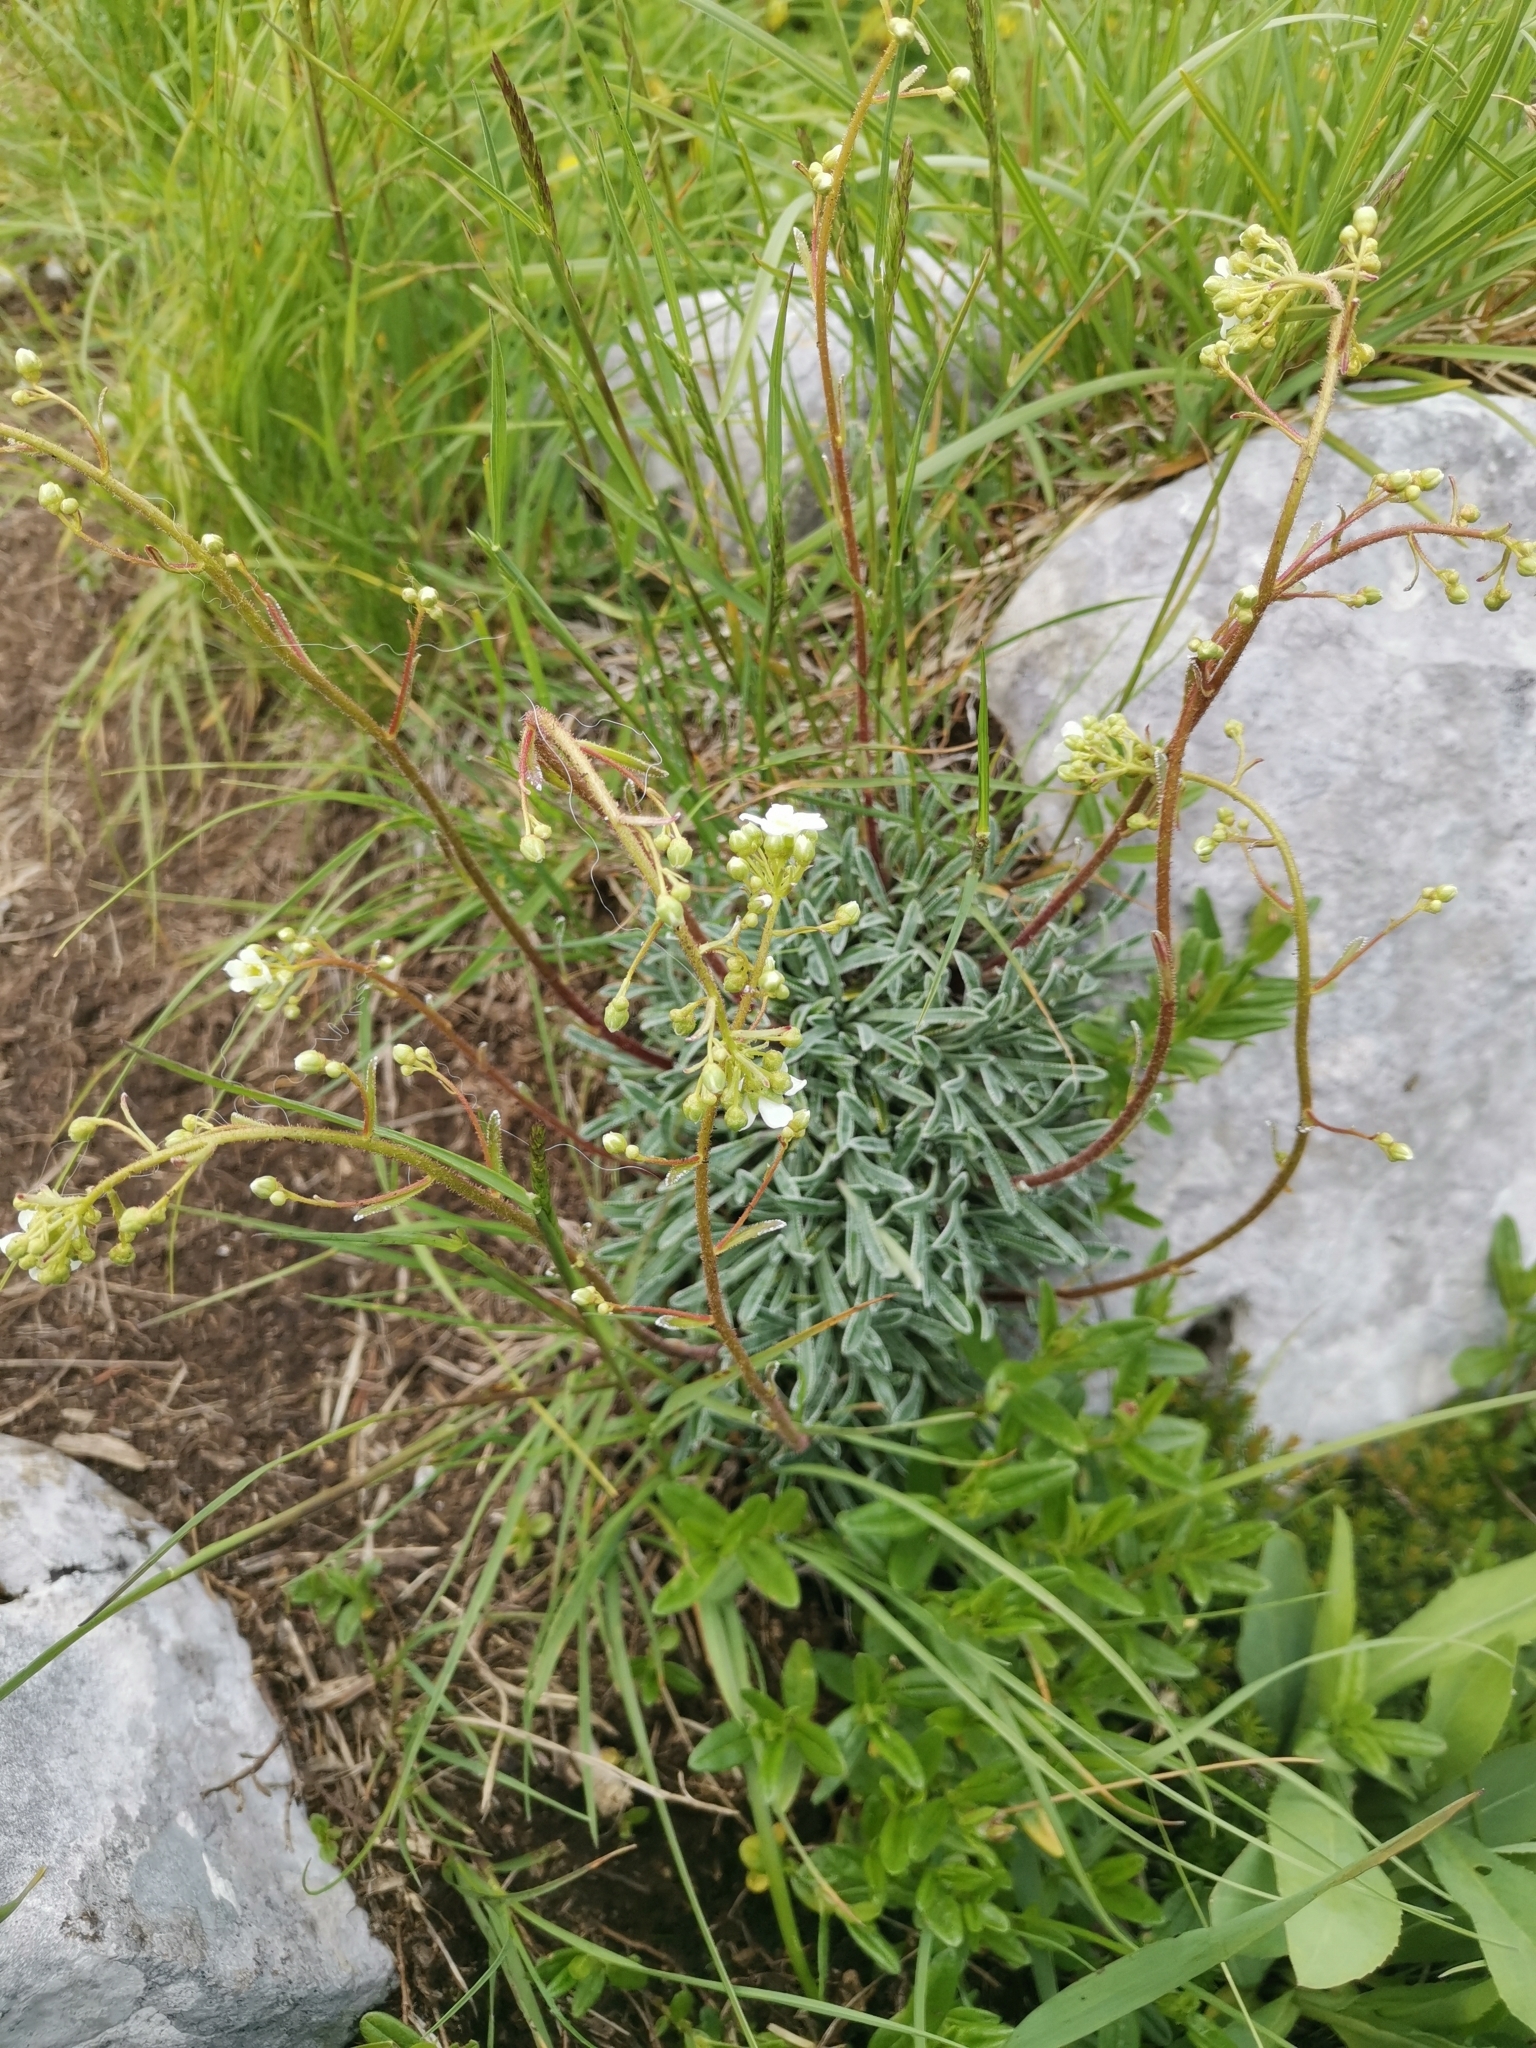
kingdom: Plantae
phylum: Tracheophyta
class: Magnoliopsida
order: Saxifragales
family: Saxifragaceae
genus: Saxifraga
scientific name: Saxifraga crustata
